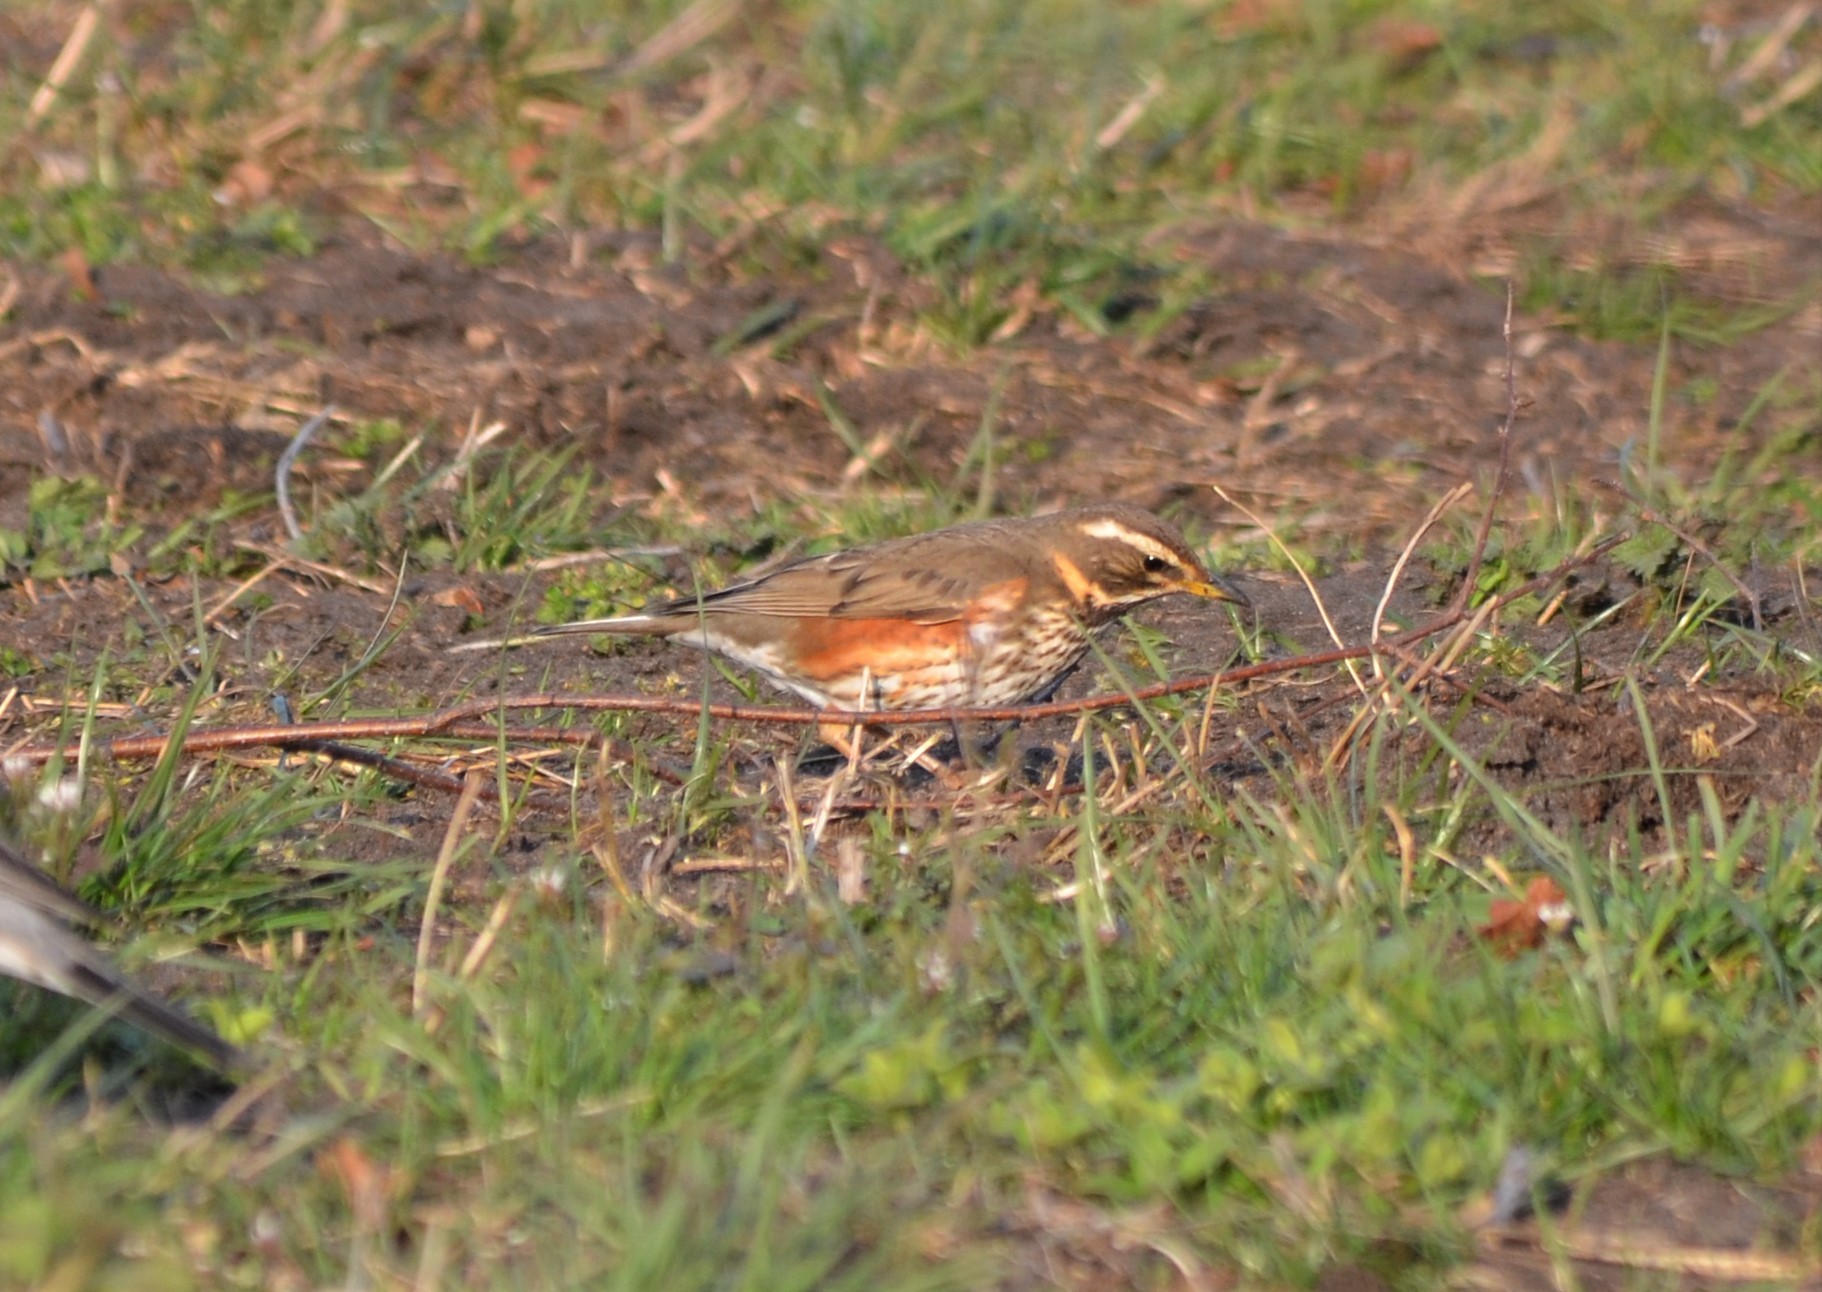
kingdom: Animalia
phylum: Chordata
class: Aves
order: Passeriformes
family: Turdidae
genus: Turdus
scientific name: Turdus iliacus
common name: Redwing
